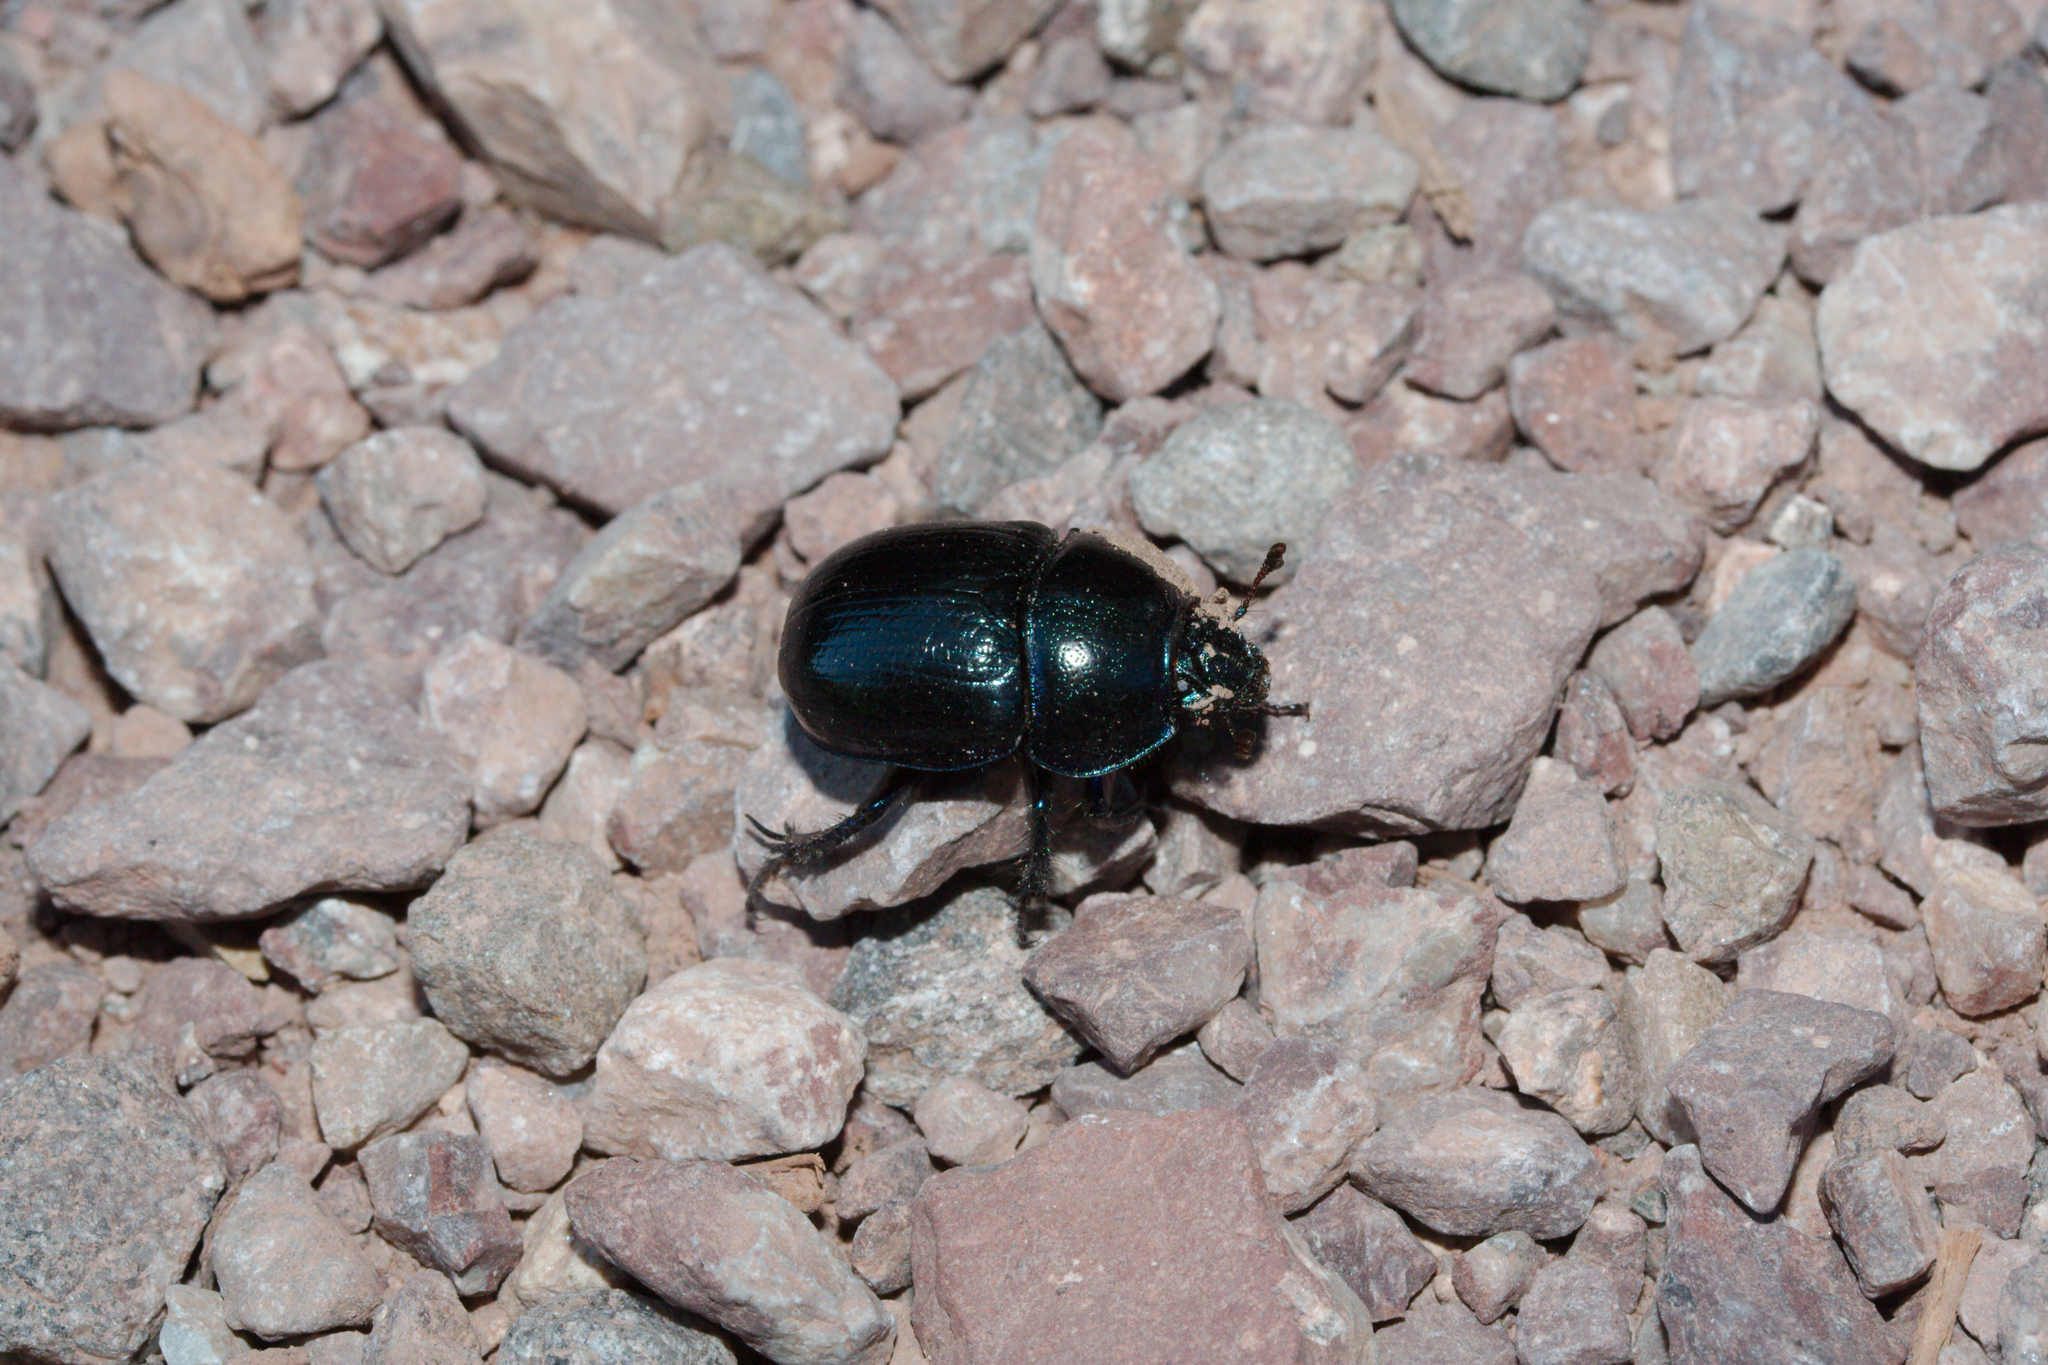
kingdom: Animalia
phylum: Arthropoda
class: Insecta
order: Coleoptera
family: Geotrupidae
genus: Anoplotrupes
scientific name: Anoplotrupes stercorosus
